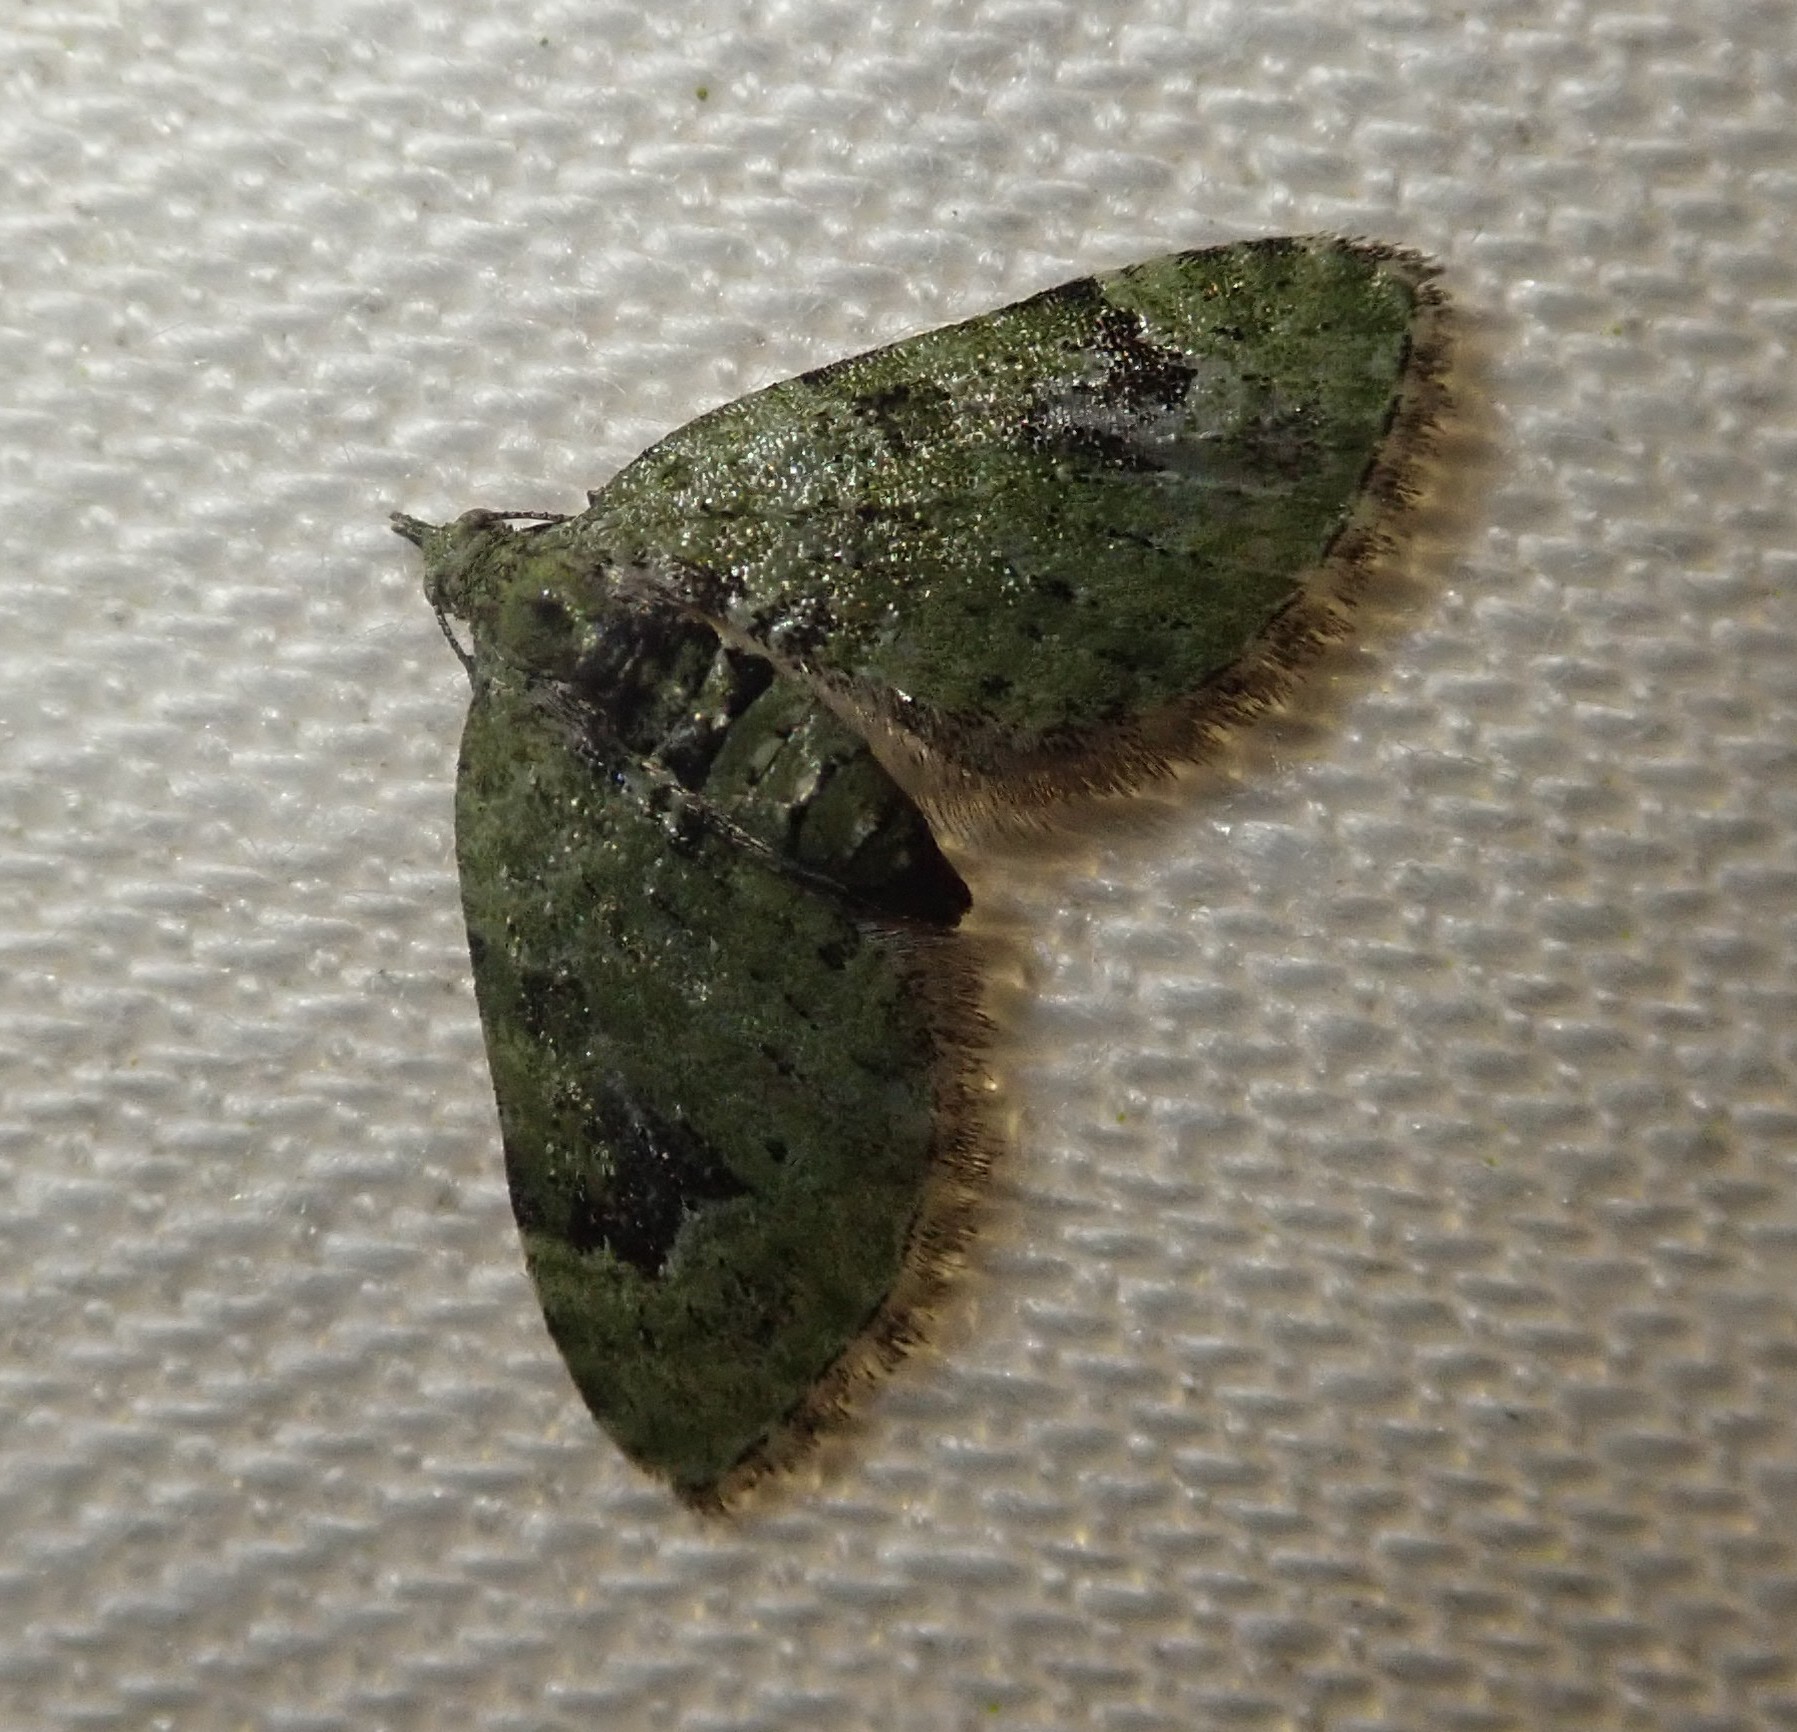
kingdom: Animalia
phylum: Arthropoda
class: Insecta
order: Lepidoptera
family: Geometridae
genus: Chloroclystis
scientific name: Chloroclystis v-ata
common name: V-pug
